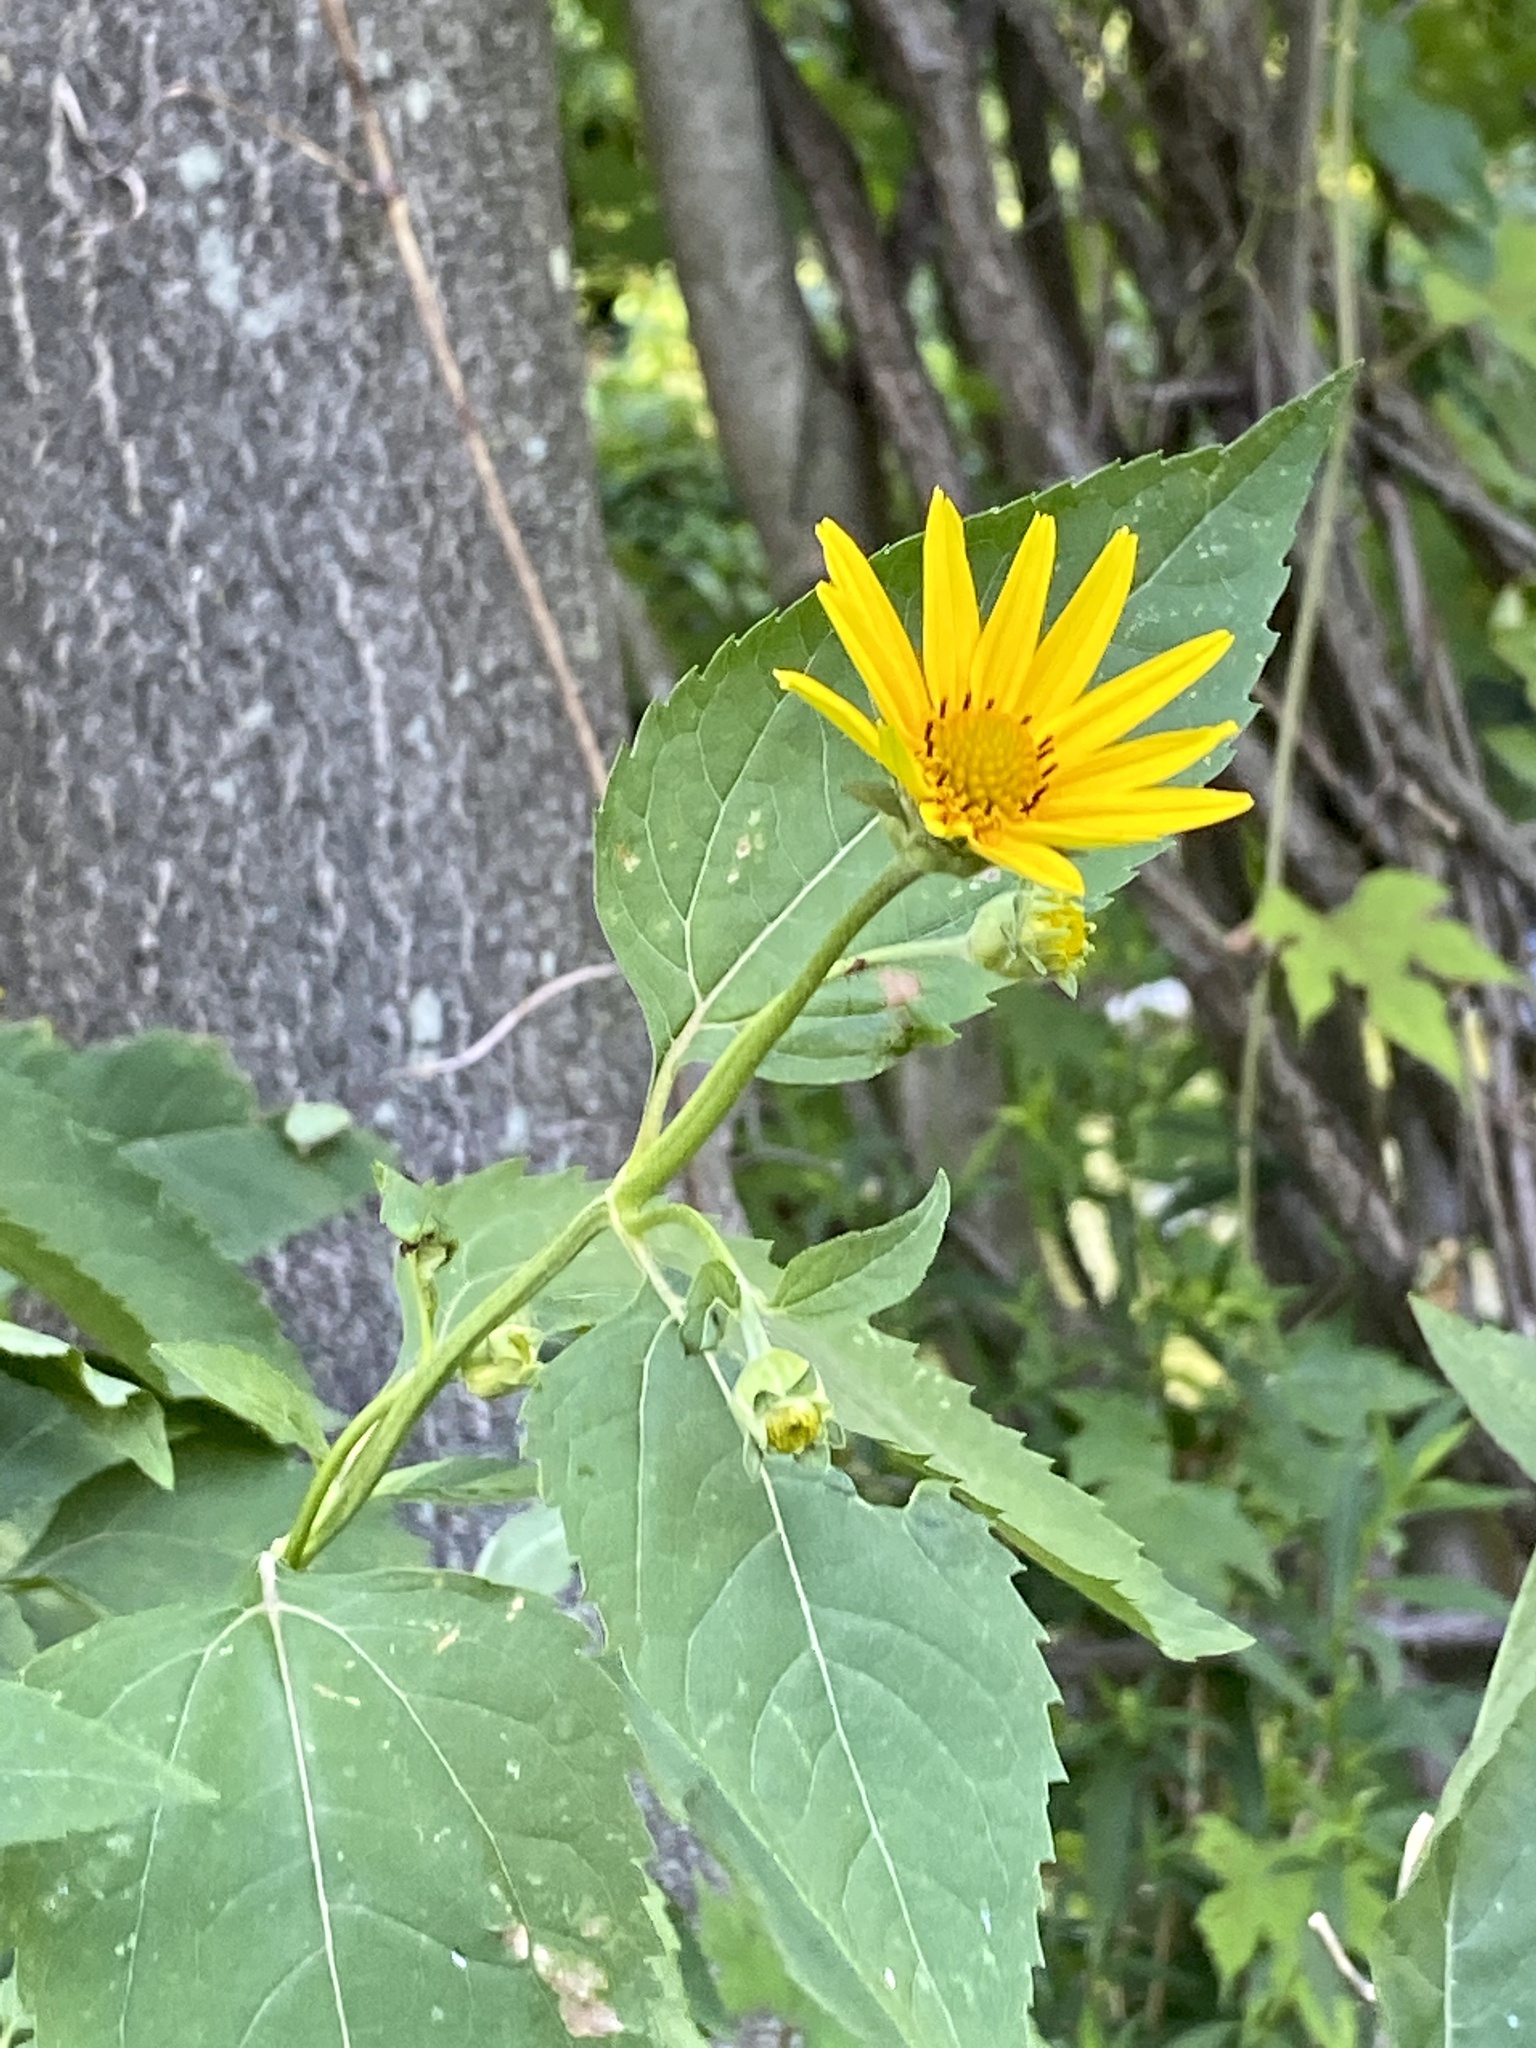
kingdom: Plantae
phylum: Tracheophyta
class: Magnoliopsida
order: Asterales
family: Asteraceae
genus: Heliopsis
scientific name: Heliopsis helianthoides
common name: False sunflower
